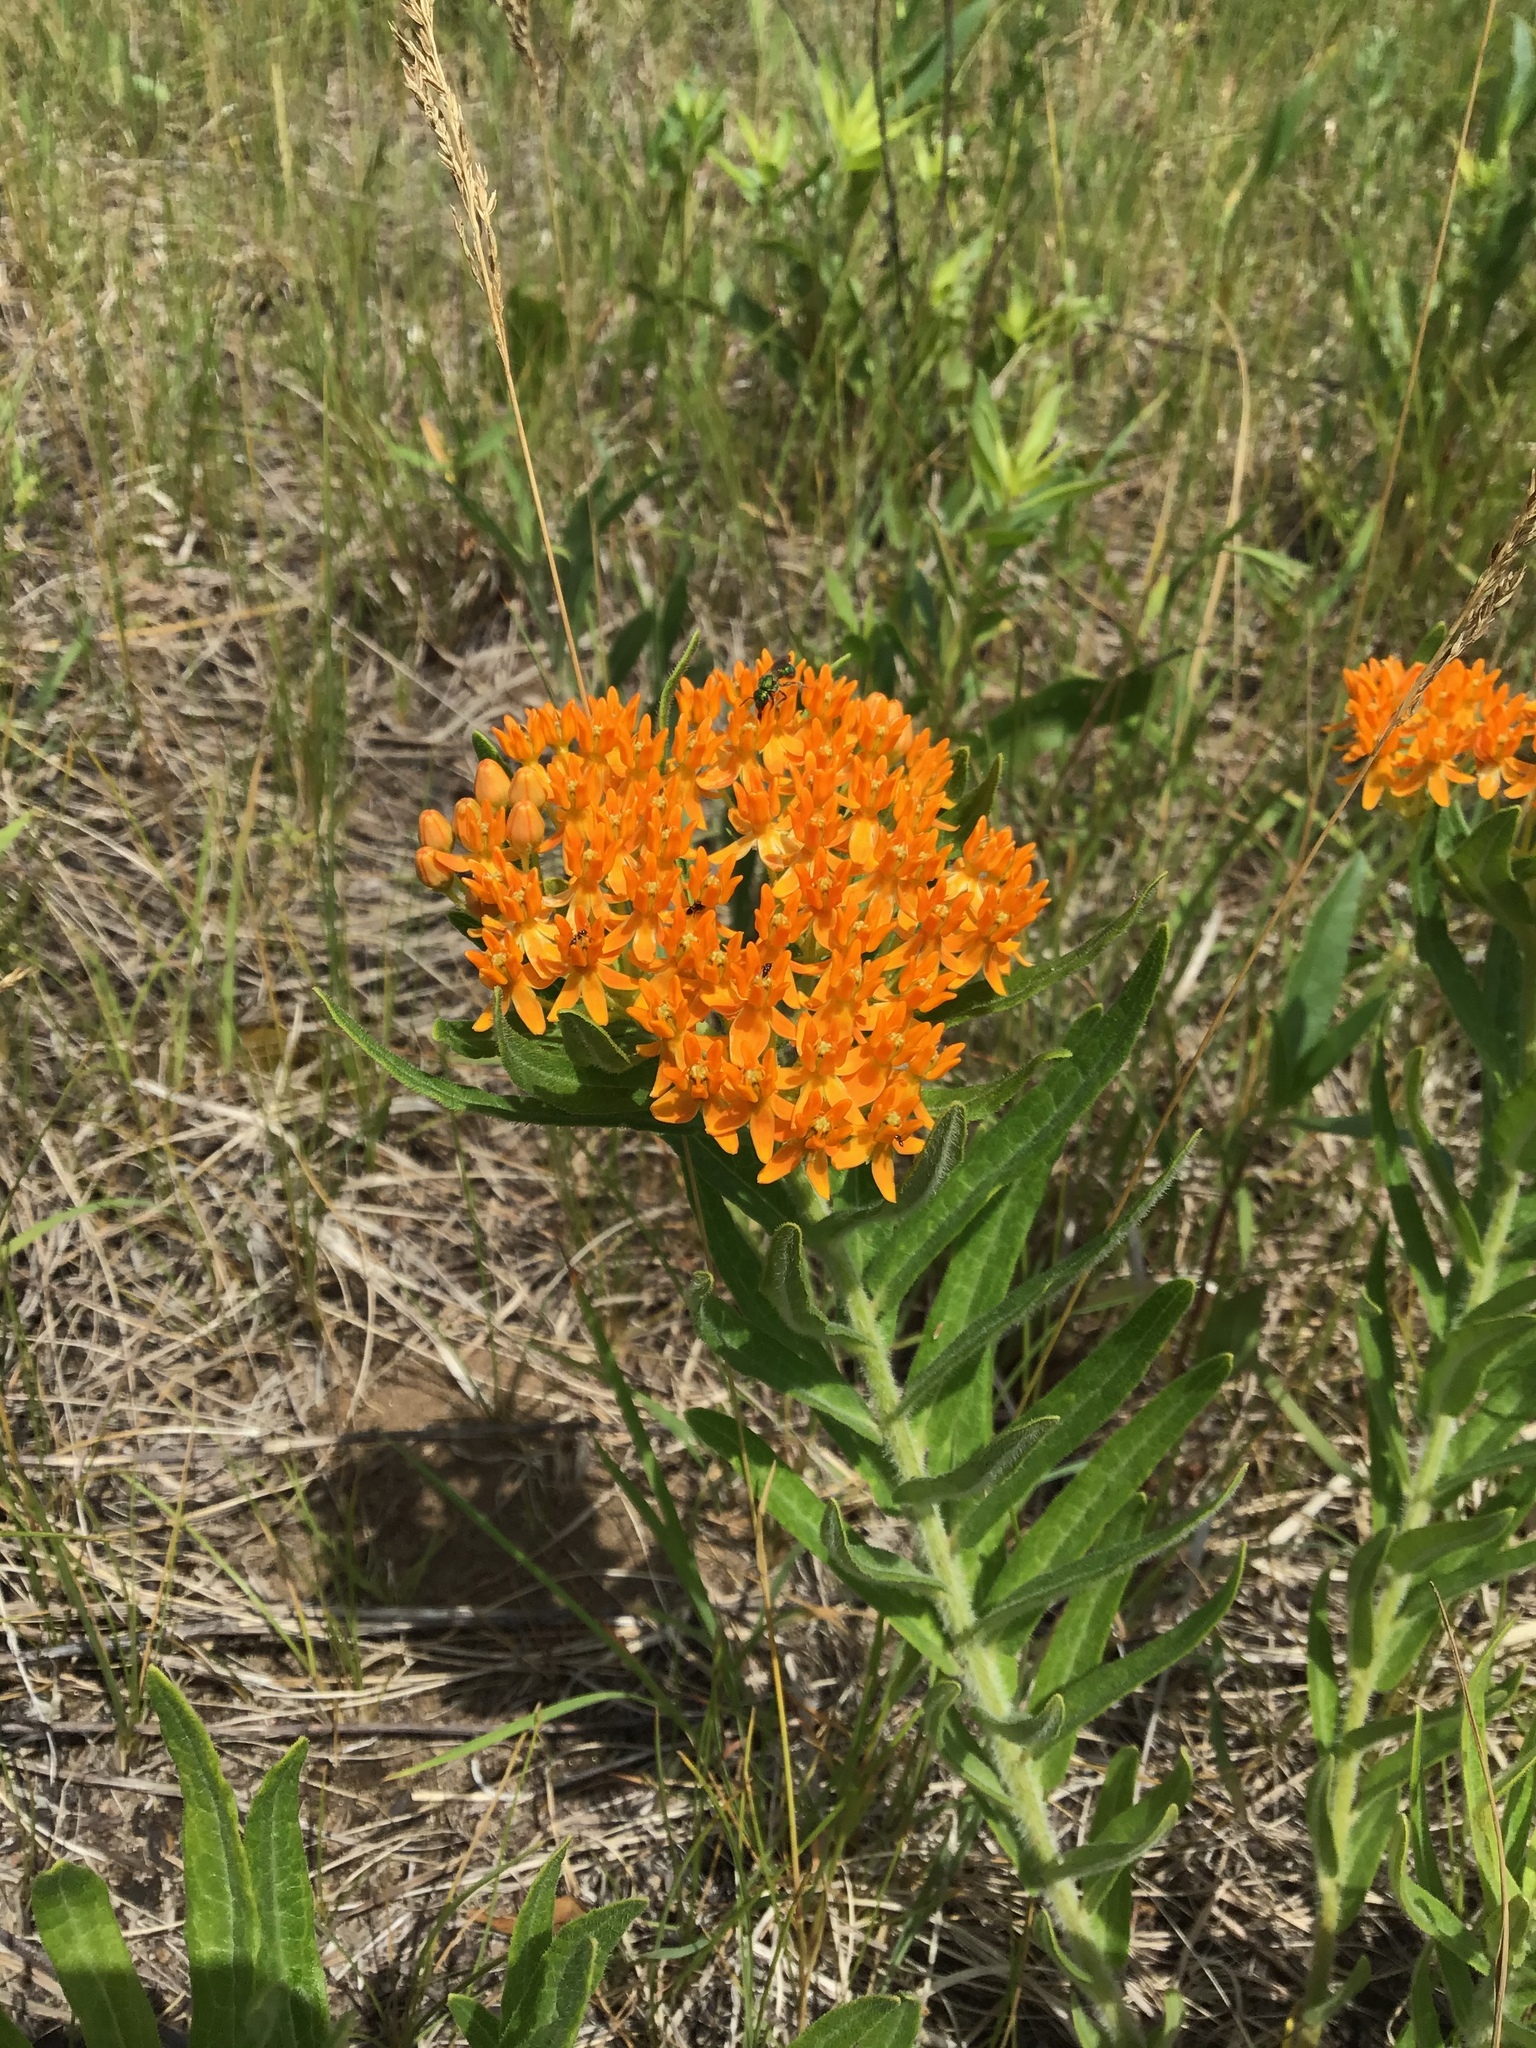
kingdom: Plantae
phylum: Tracheophyta
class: Magnoliopsida
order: Gentianales
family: Apocynaceae
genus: Asclepias
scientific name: Asclepias tuberosa
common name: Butterfly milkweed
